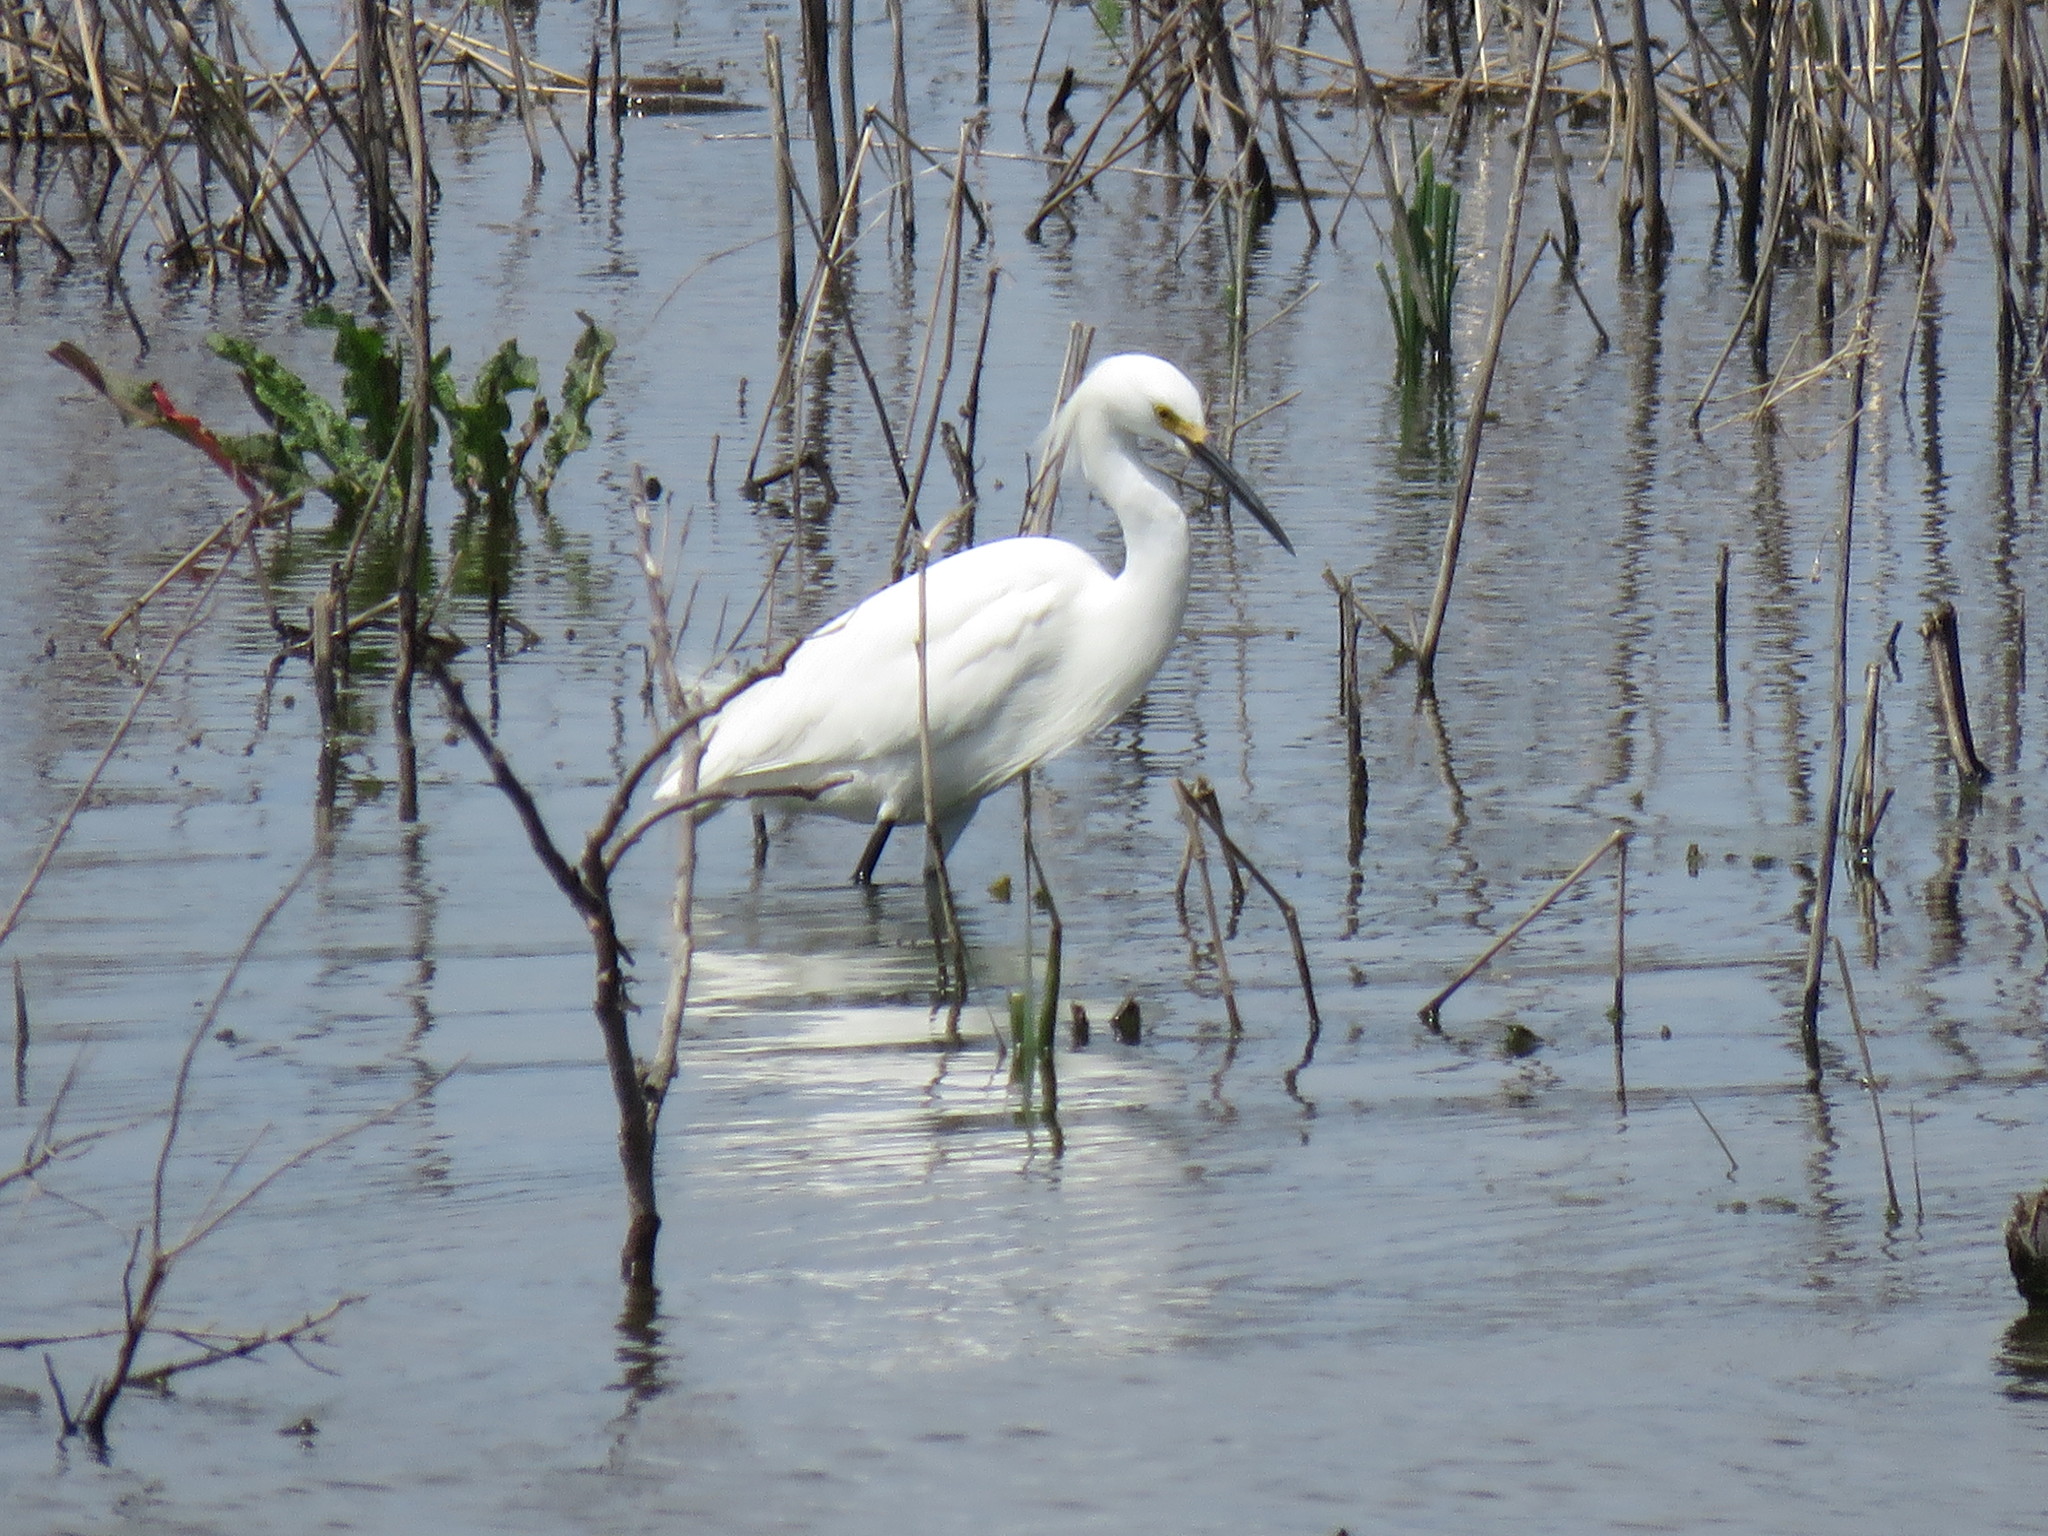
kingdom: Animalia
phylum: Chordata
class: Aves
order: Pelecaniformes
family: Ardeidae
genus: Egretta
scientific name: Egretta thula
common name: Snowy egret
